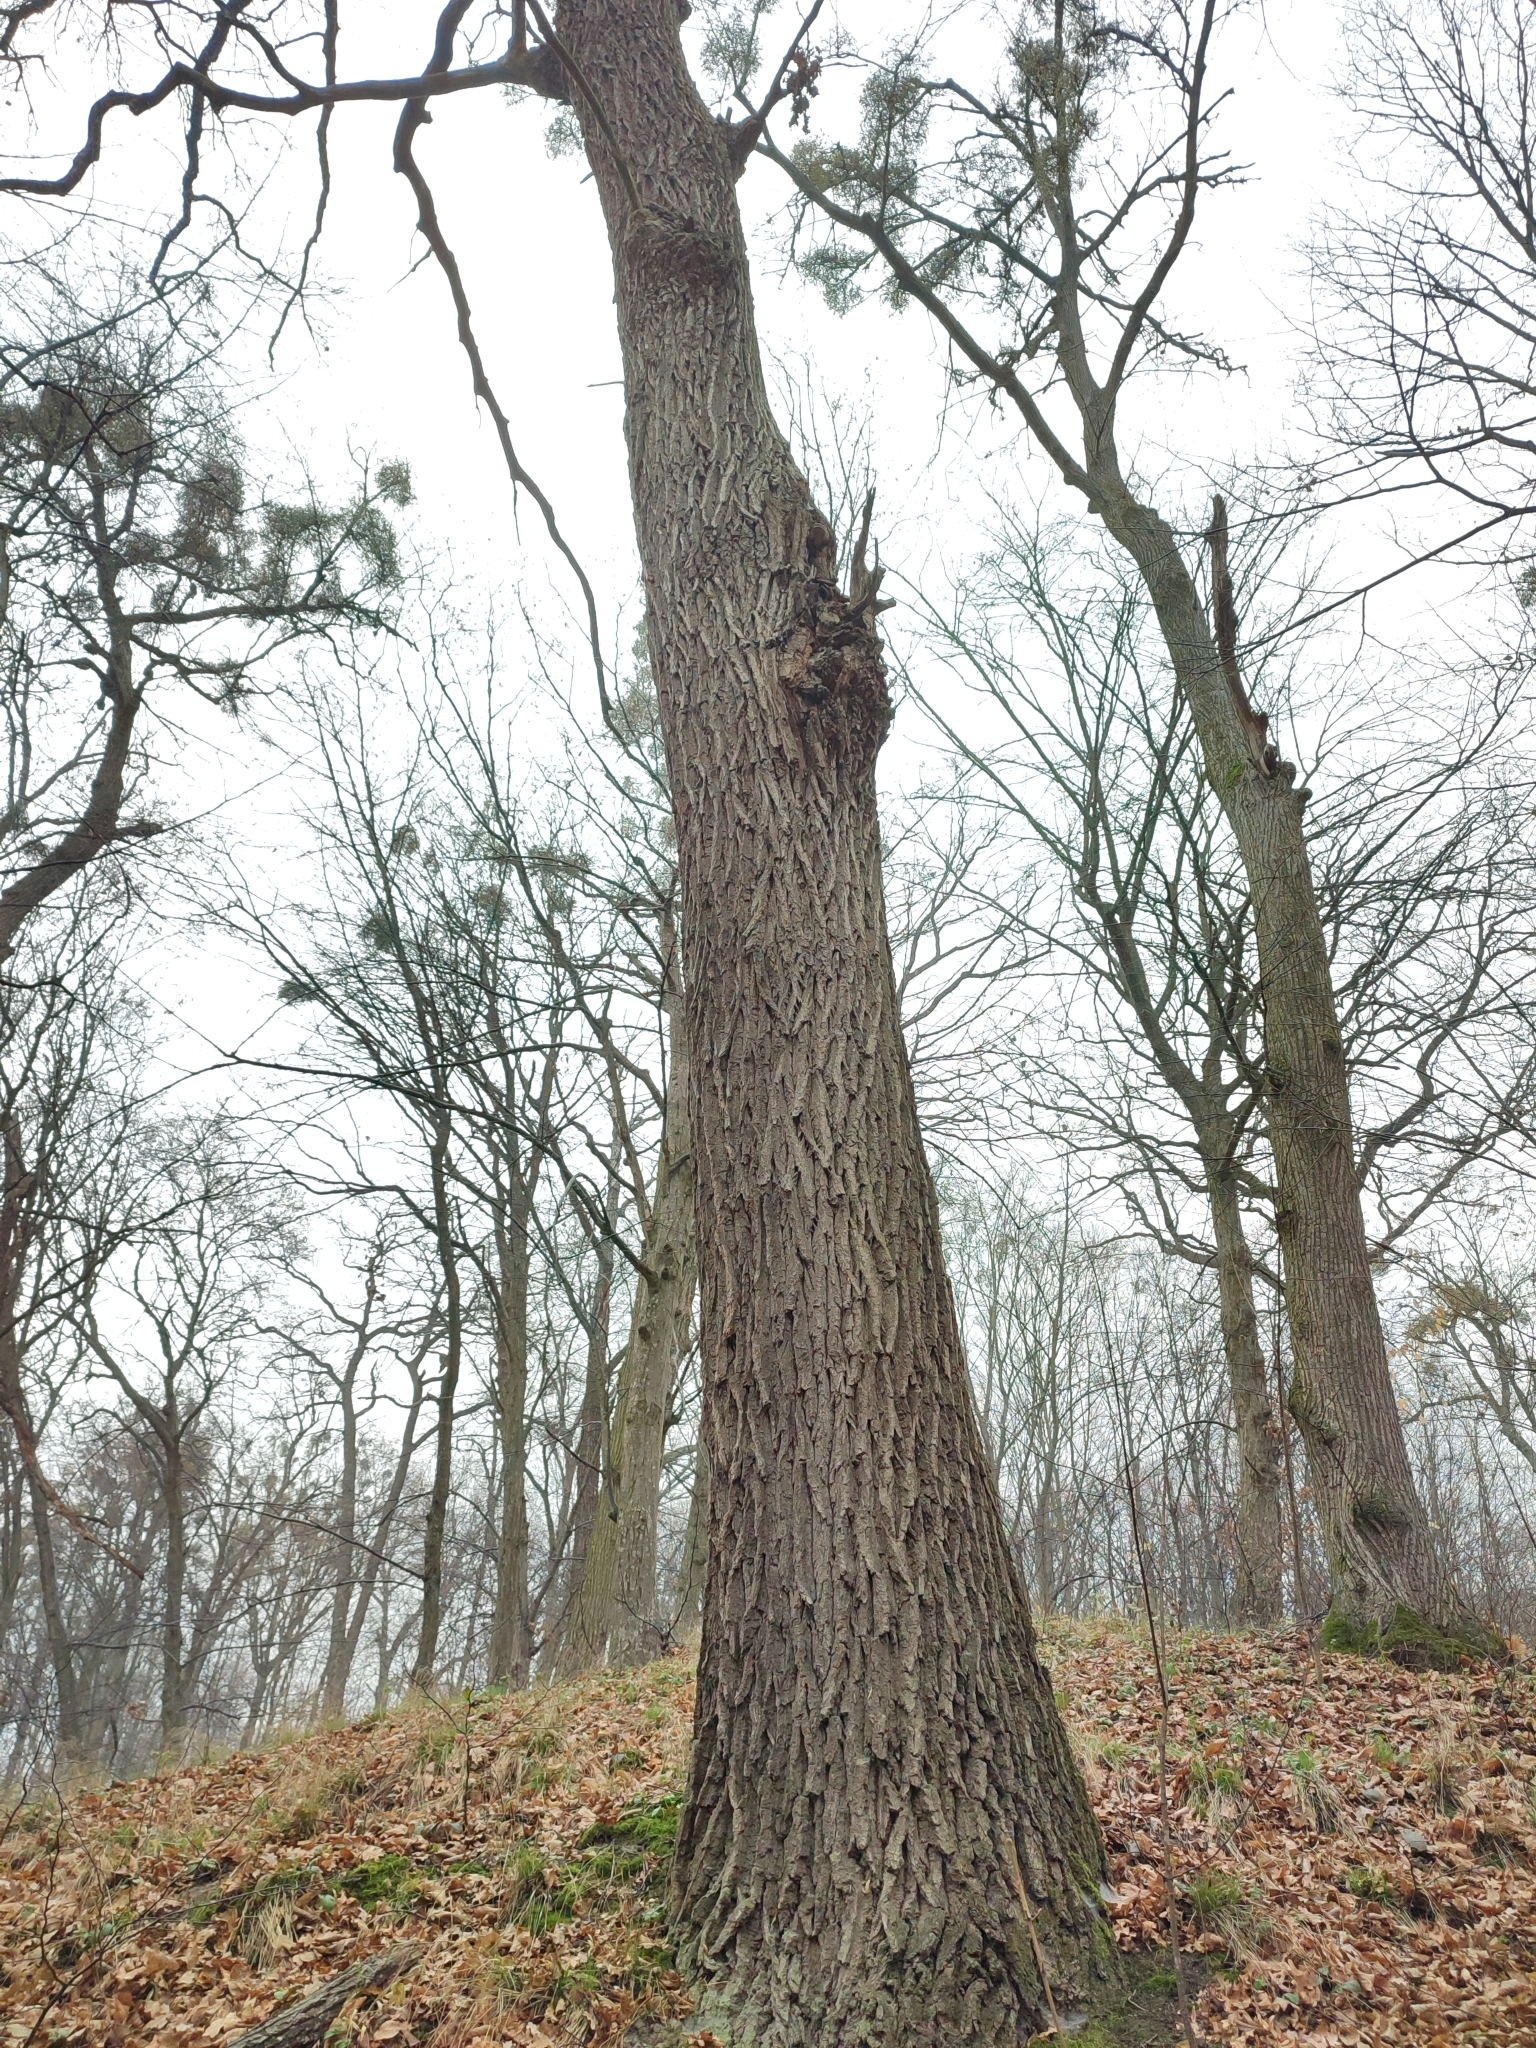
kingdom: Plantae
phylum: Tracheophyta
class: Magnoliopsida
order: Fagales
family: Fagaceae
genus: Quercus
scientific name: Quercus robur
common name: Pedunculate oak
